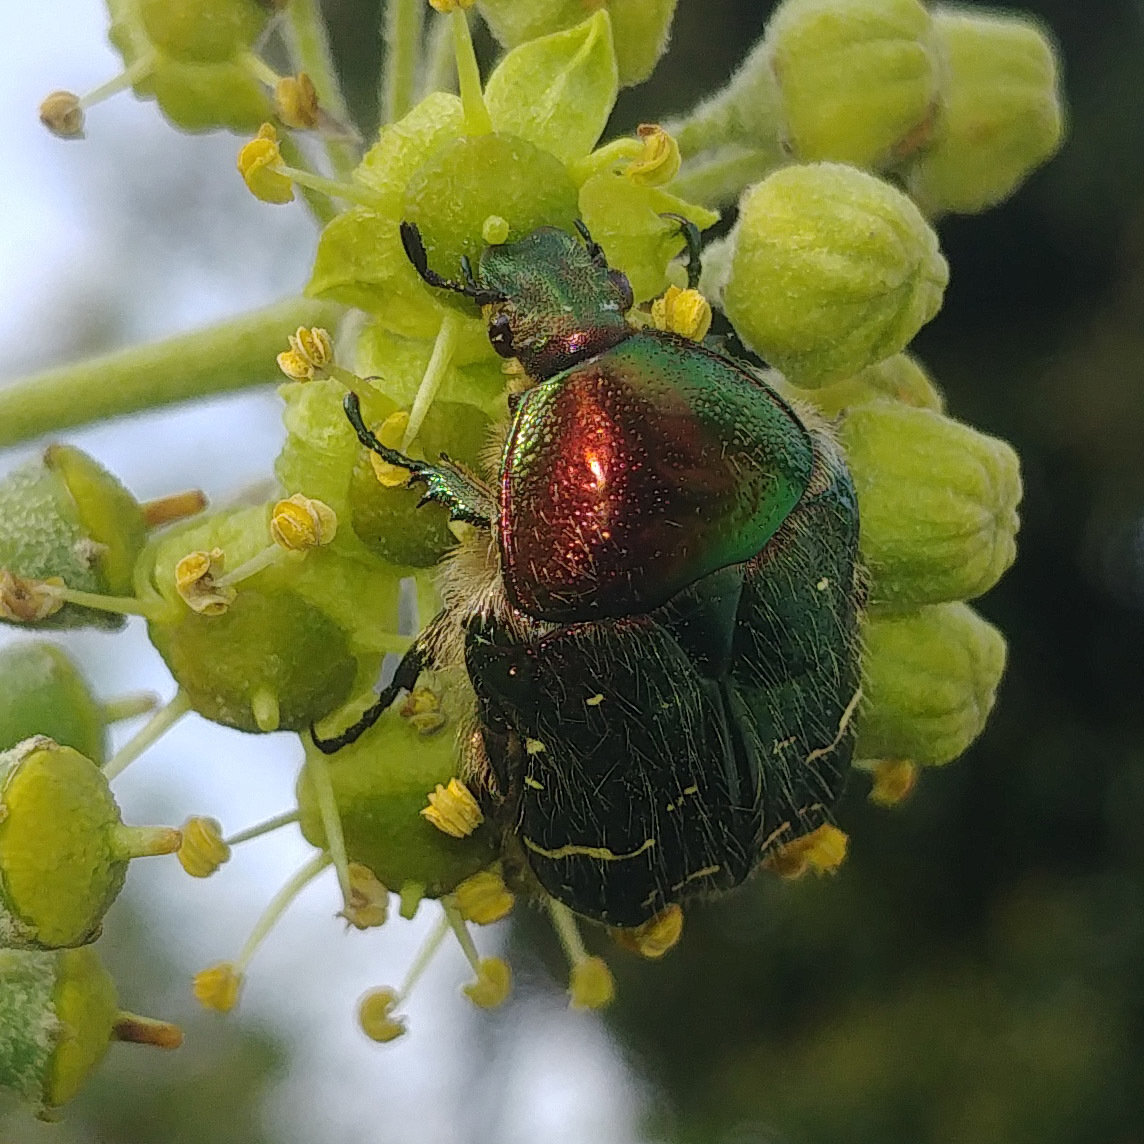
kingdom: Animalia
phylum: Arthropoda
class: Insecta
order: Coleoptera
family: Scarabaeidae
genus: Cetonia
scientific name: Cetonia aurata
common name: Rose chafer
